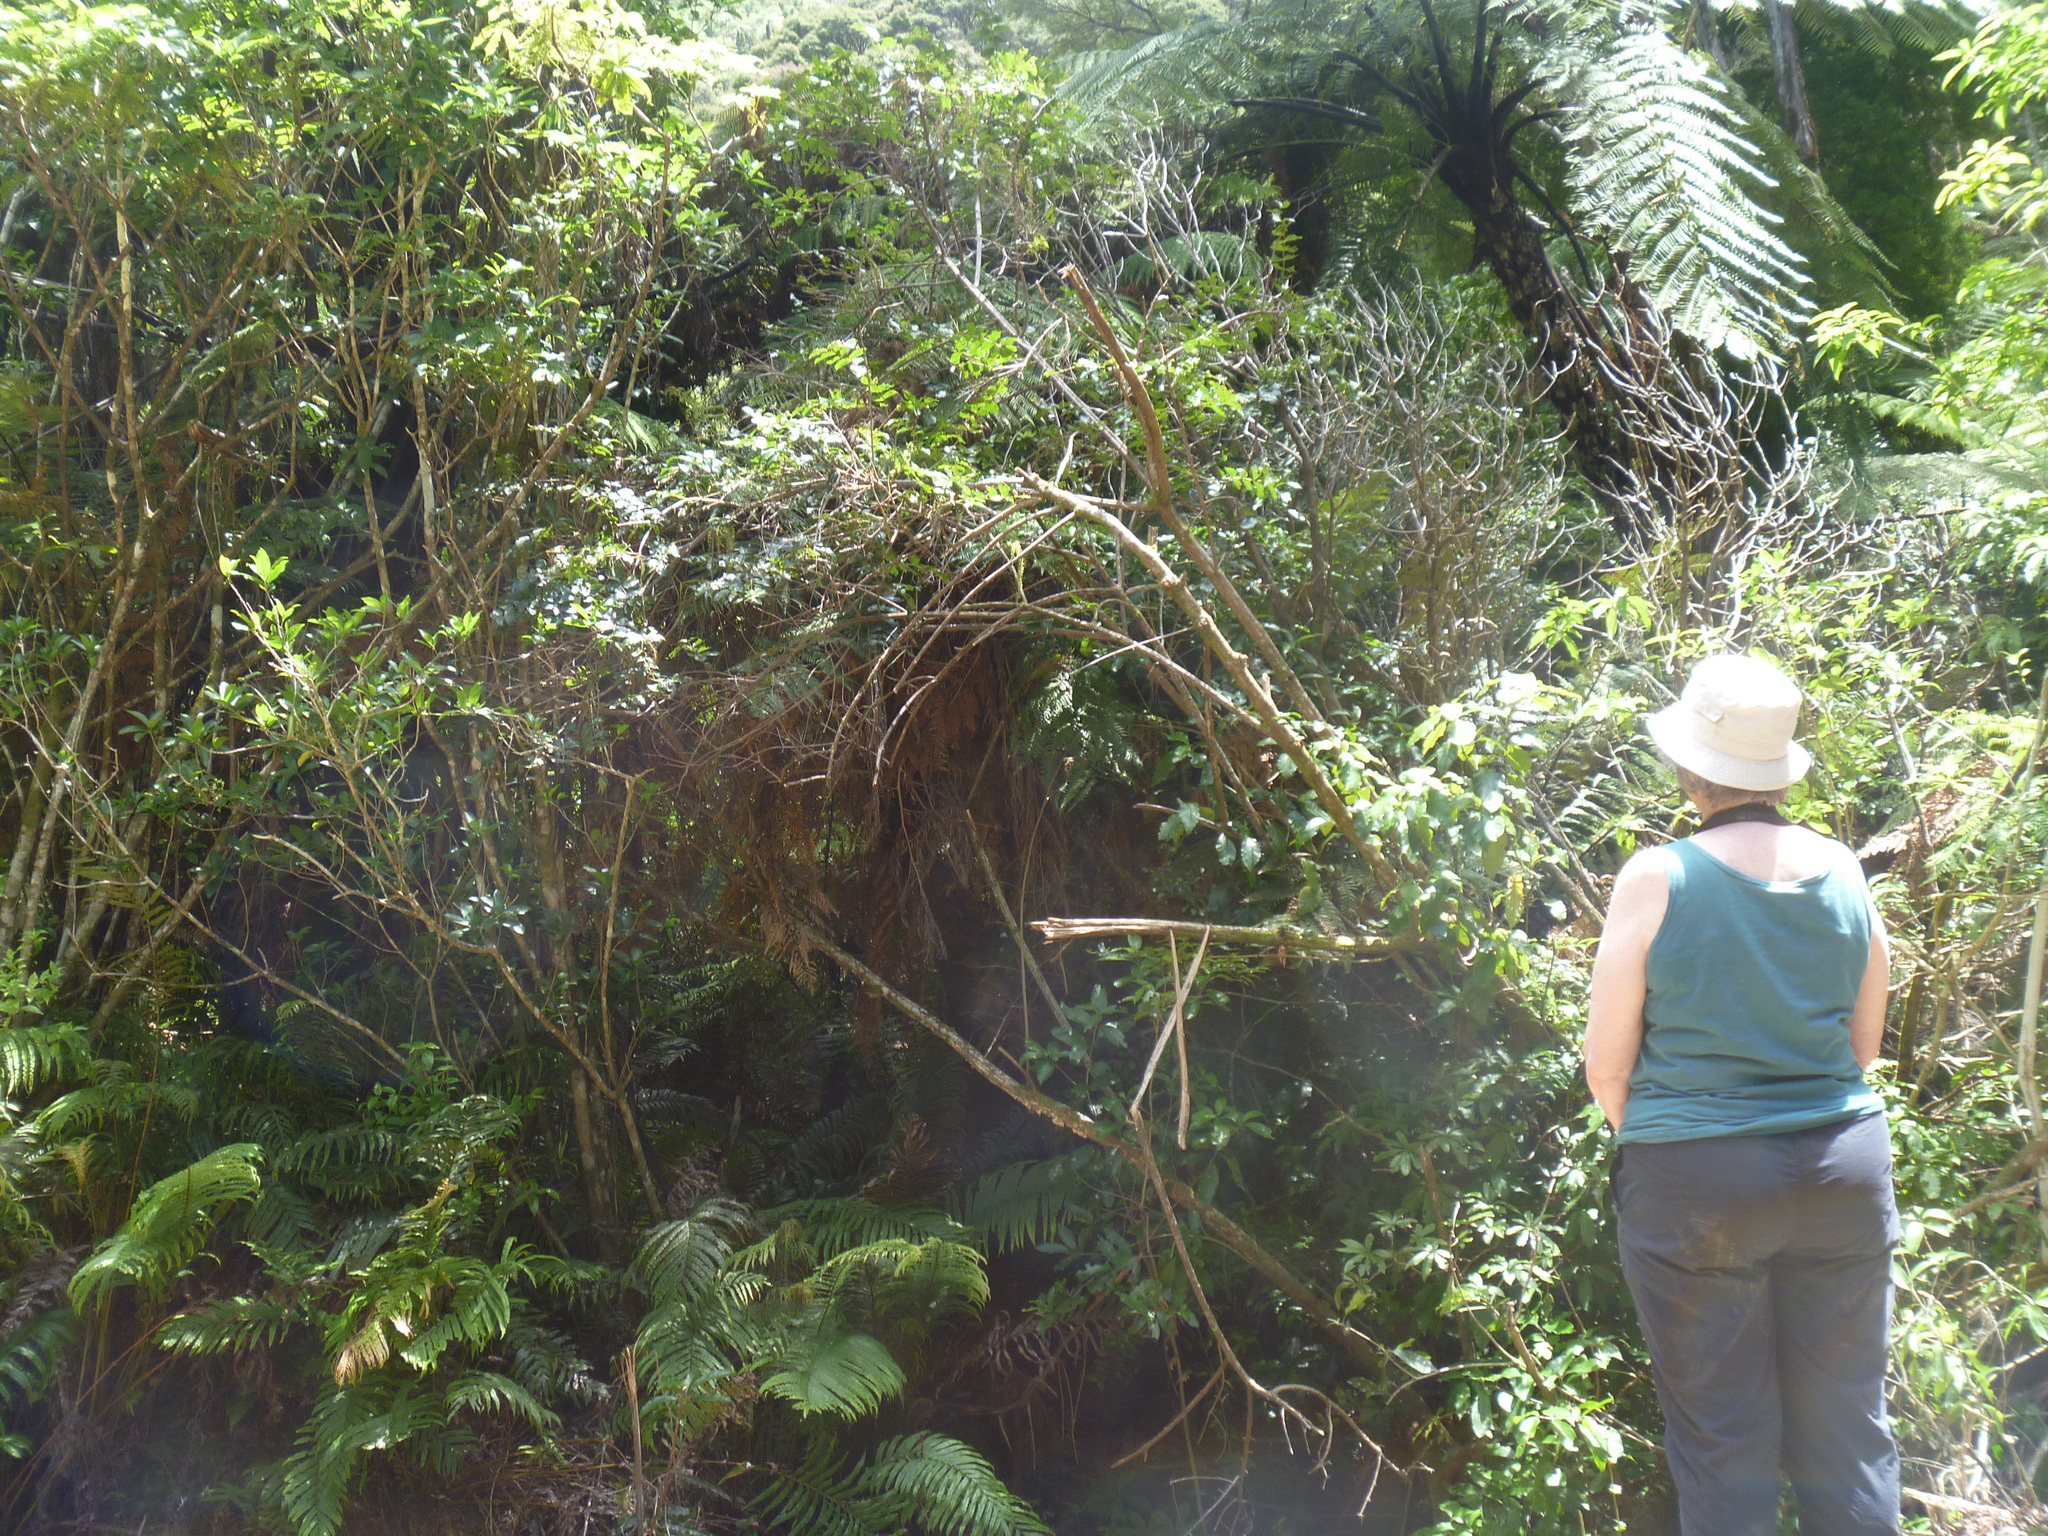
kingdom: Plantae
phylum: Tracheophyta
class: Magnoliopsida
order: Cucurbitales
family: Coriariaceae
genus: Coriaria
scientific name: Coriaria arborea
